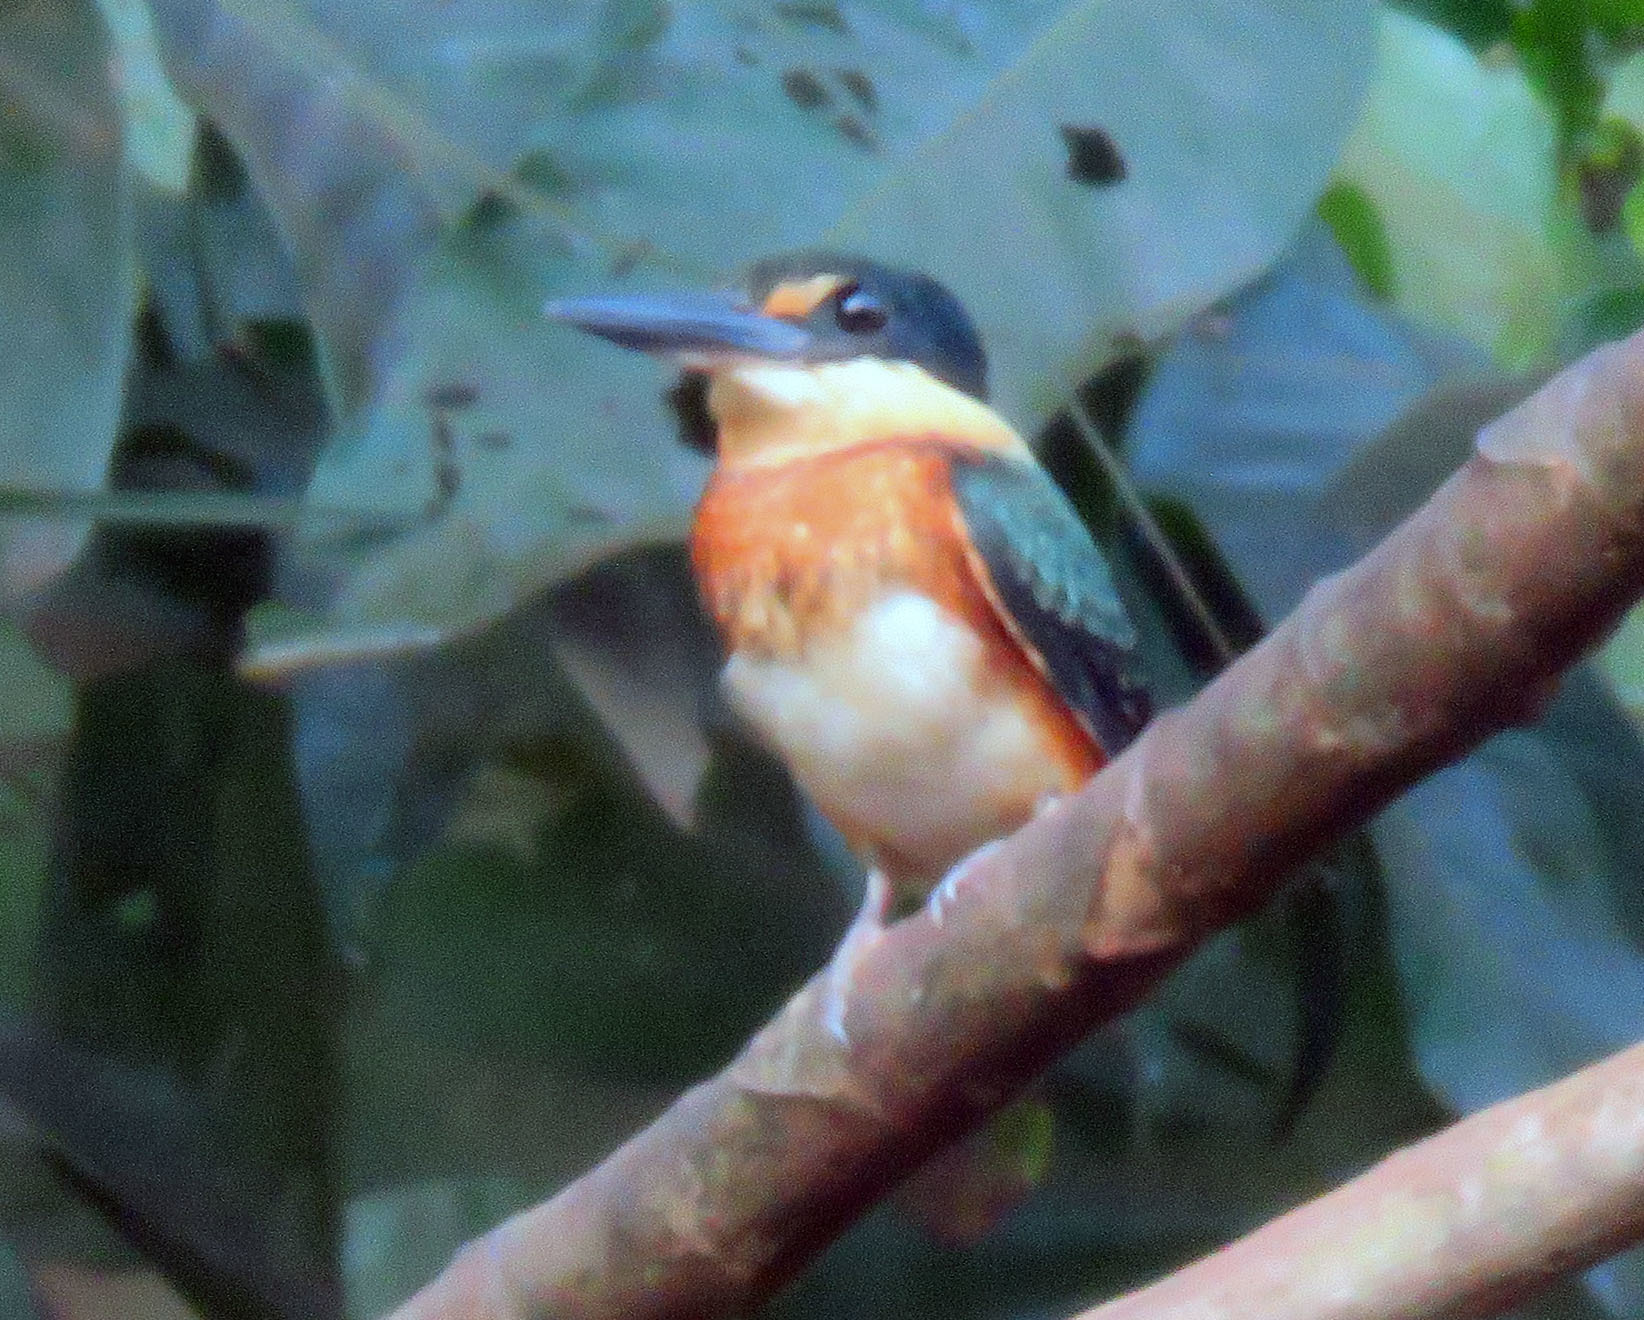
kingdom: Animalia
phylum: Chordata
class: Aves
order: Coraciiformes
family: Alcedinidae
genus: Chloroceryle
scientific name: Chloroceryle aenea
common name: American pygmy kingfisher
